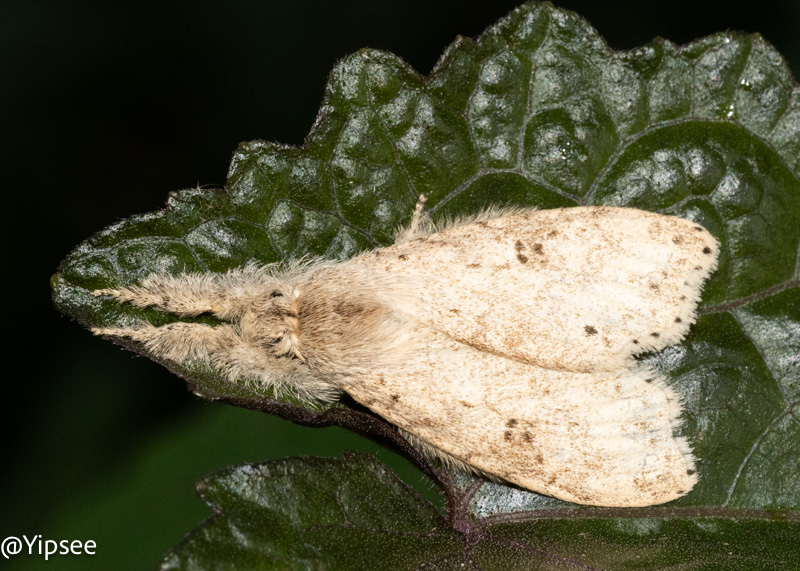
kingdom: Animalia
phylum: Arthropoda
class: Insecta
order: Lepidoptera
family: Erebidae
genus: Calliteara
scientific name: Calliteara angulata
